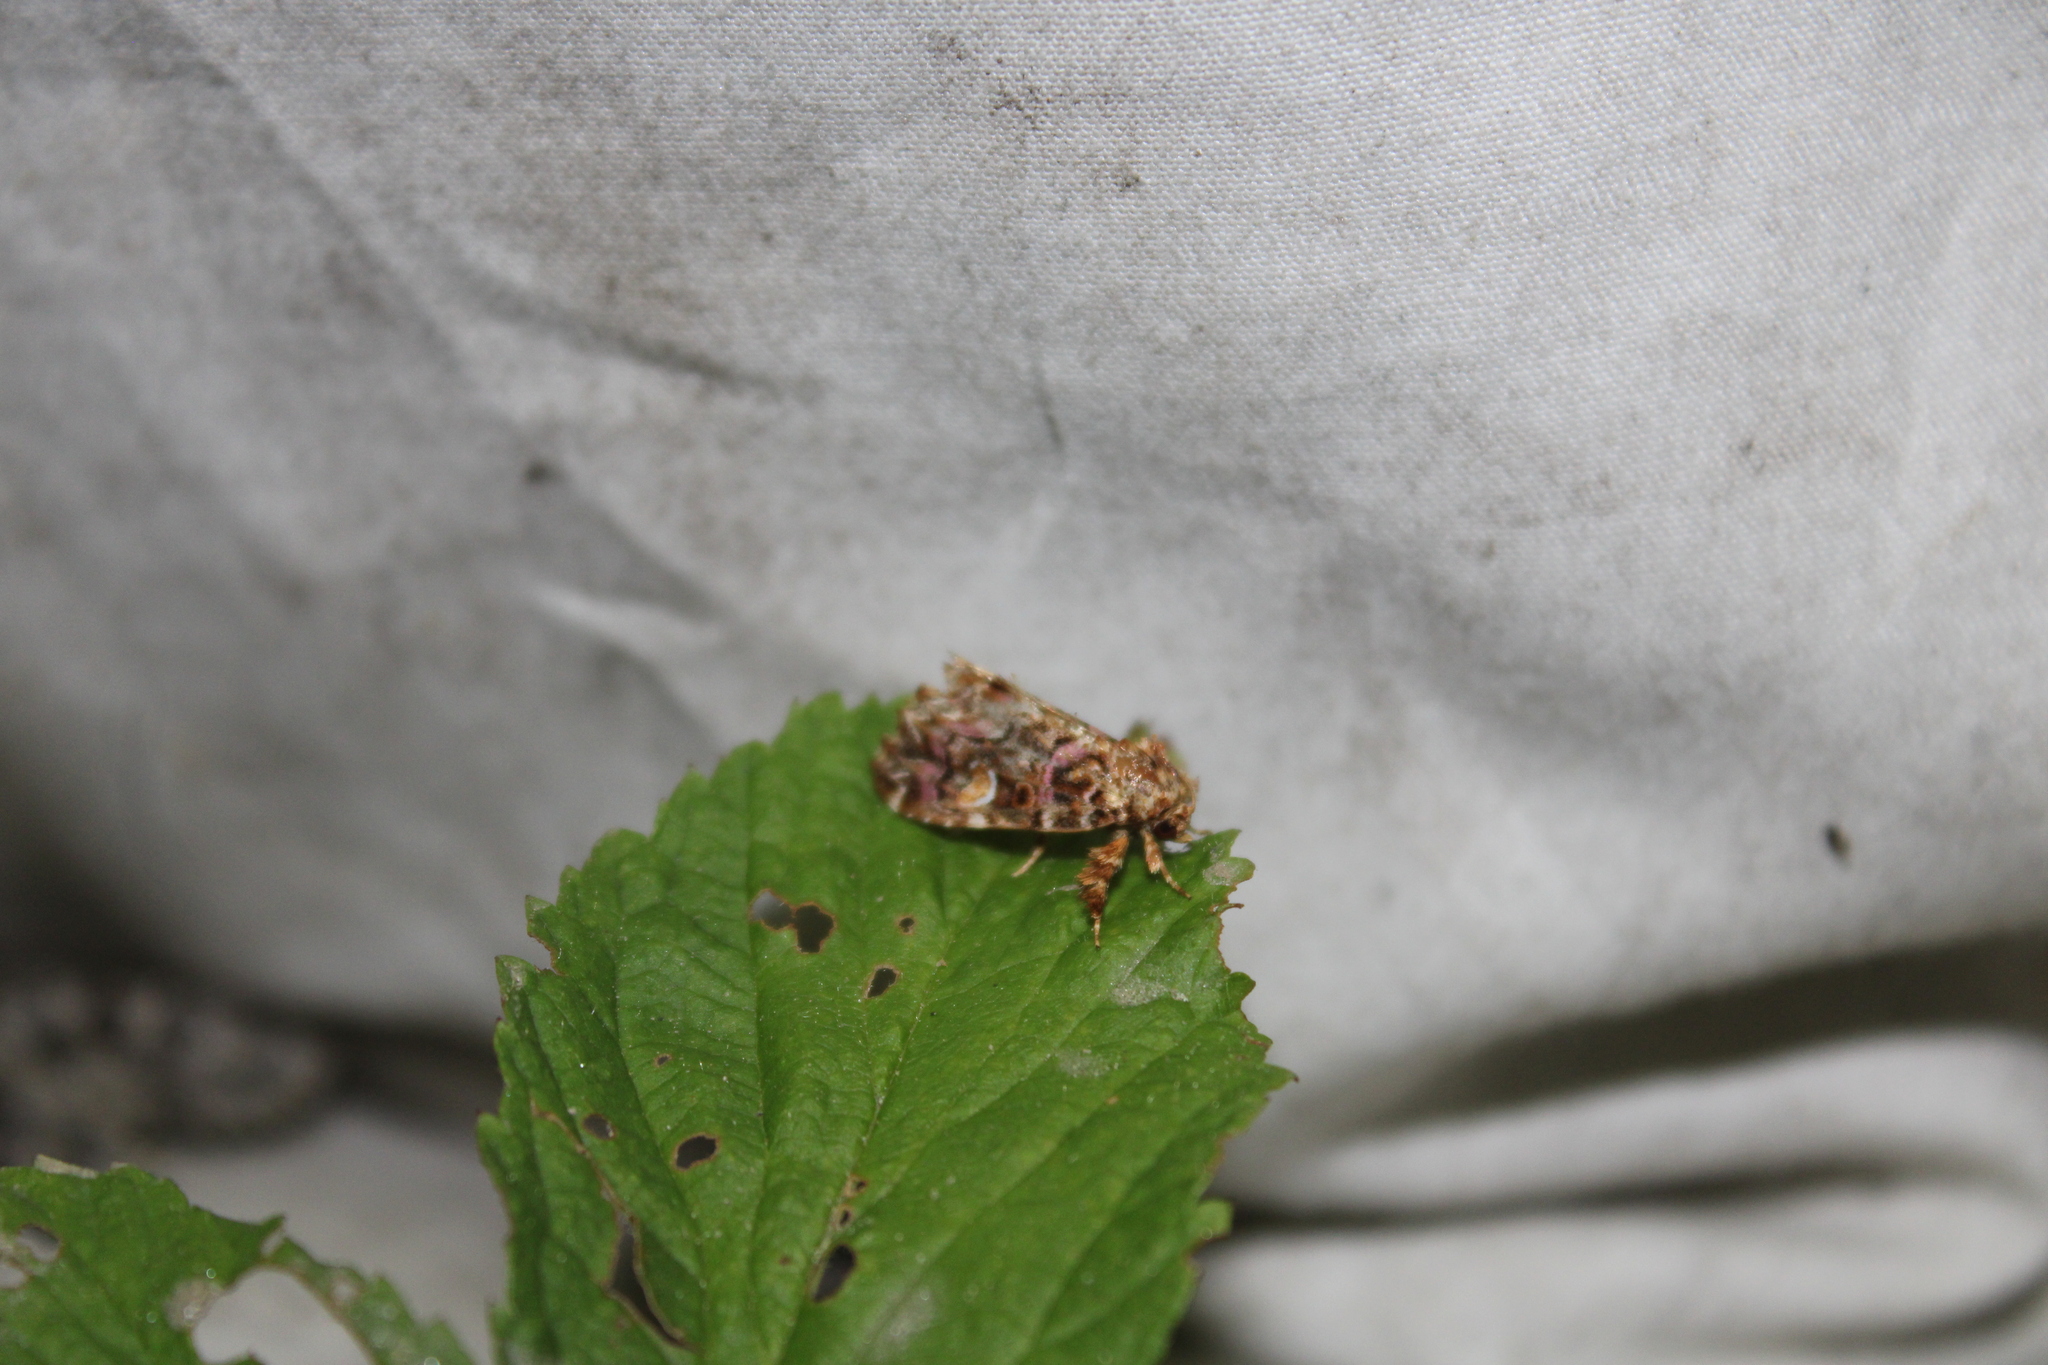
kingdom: Animalia
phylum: Arthropoda
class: Insecta
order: Lepidoptera
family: Noctuidae
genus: Callopistria
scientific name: Callopistria mollissima
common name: Pink-shaded fern moth
